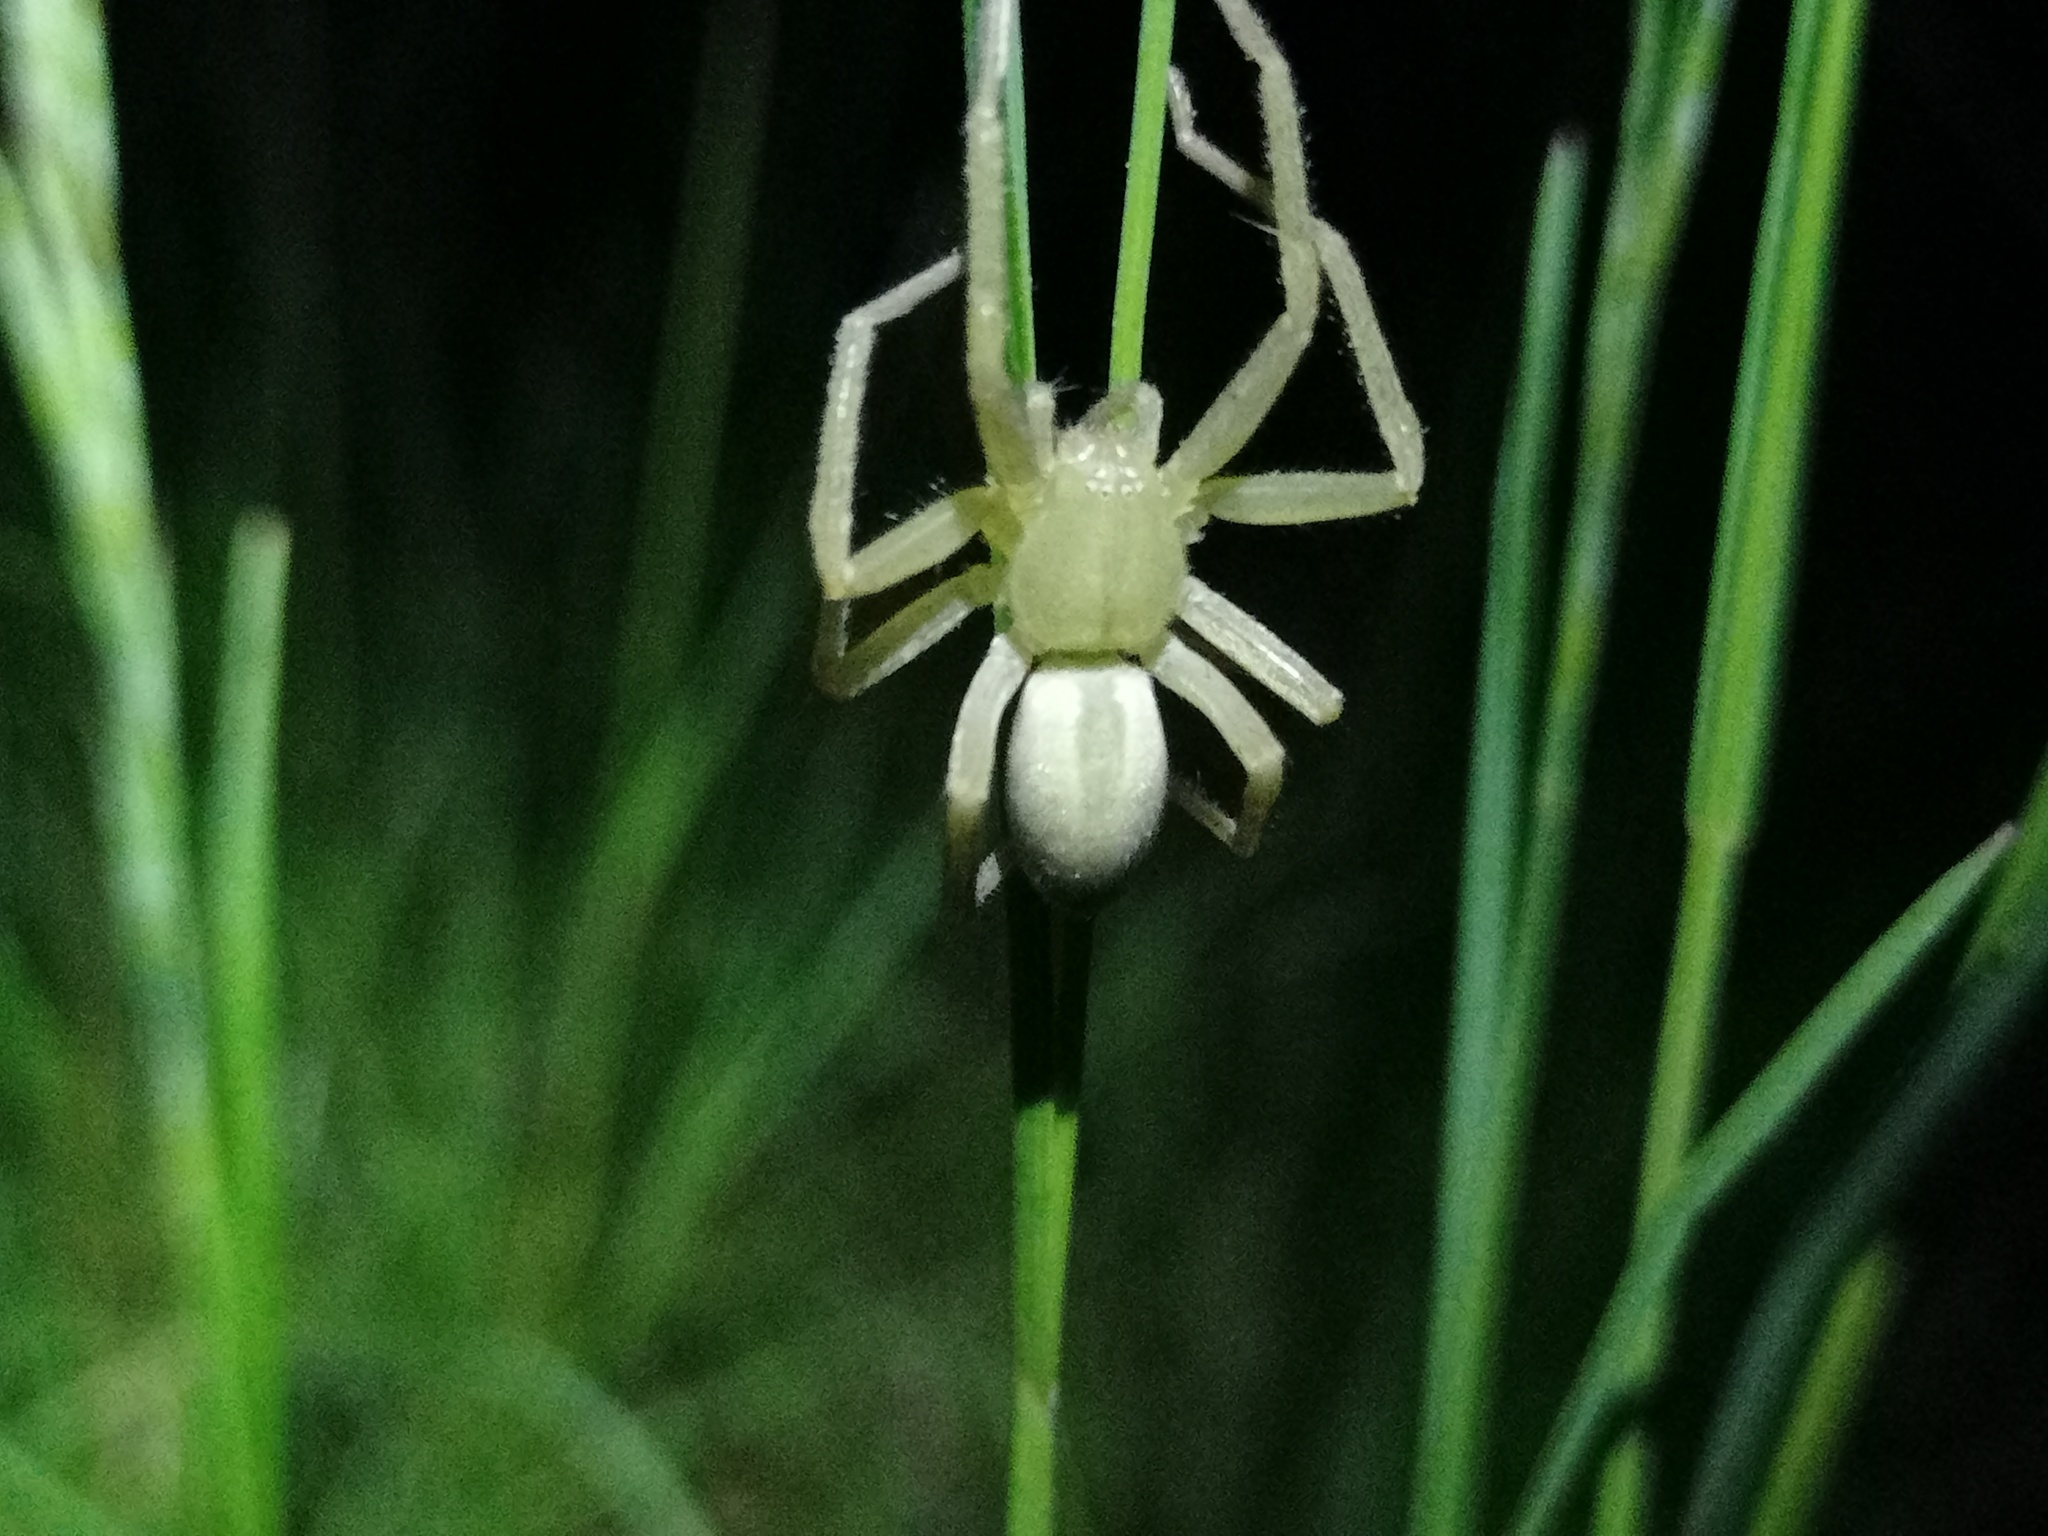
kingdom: Animalia
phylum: Arthropoda
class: Arachnida
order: Araneae
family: Sparassidae
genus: Micrommata
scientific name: Micrommata virescens
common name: Green spider
